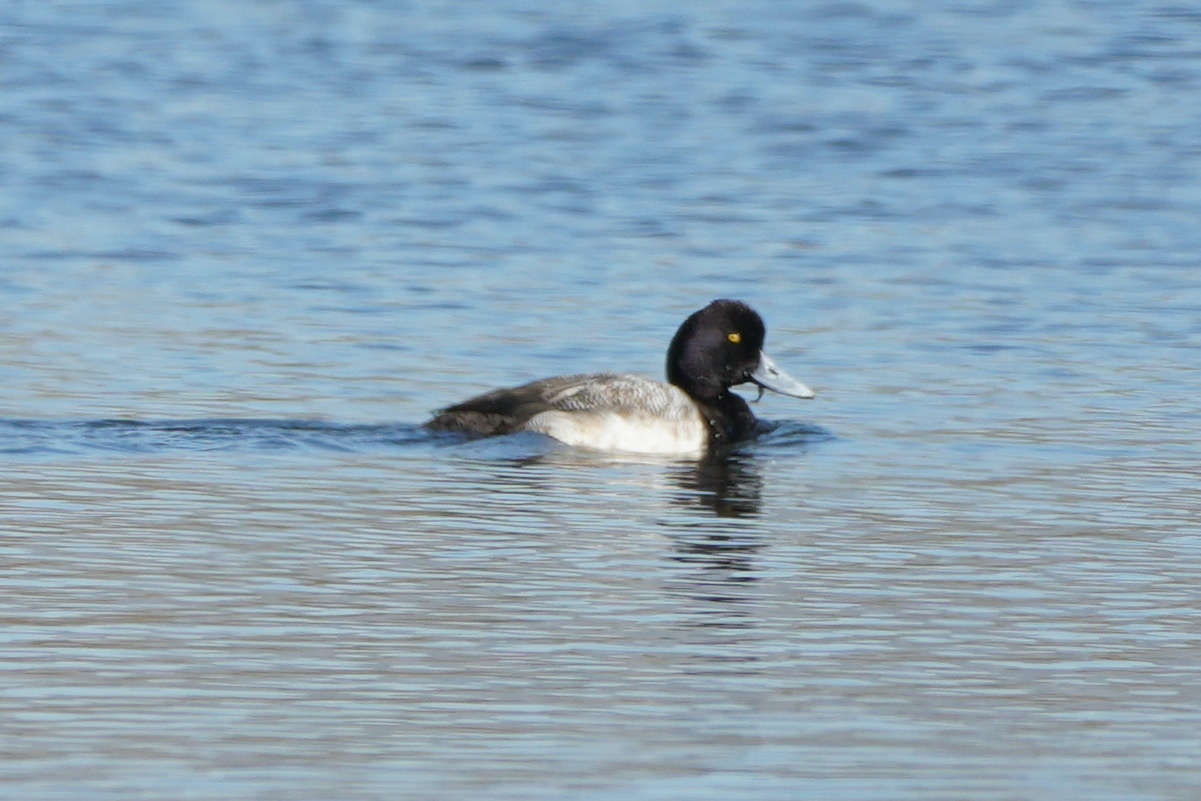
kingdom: Animalia
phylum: Chordata
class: Aves
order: Anseriformes
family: Anatidae
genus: Aythya
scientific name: Aythya affinis
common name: Lesser scaup
